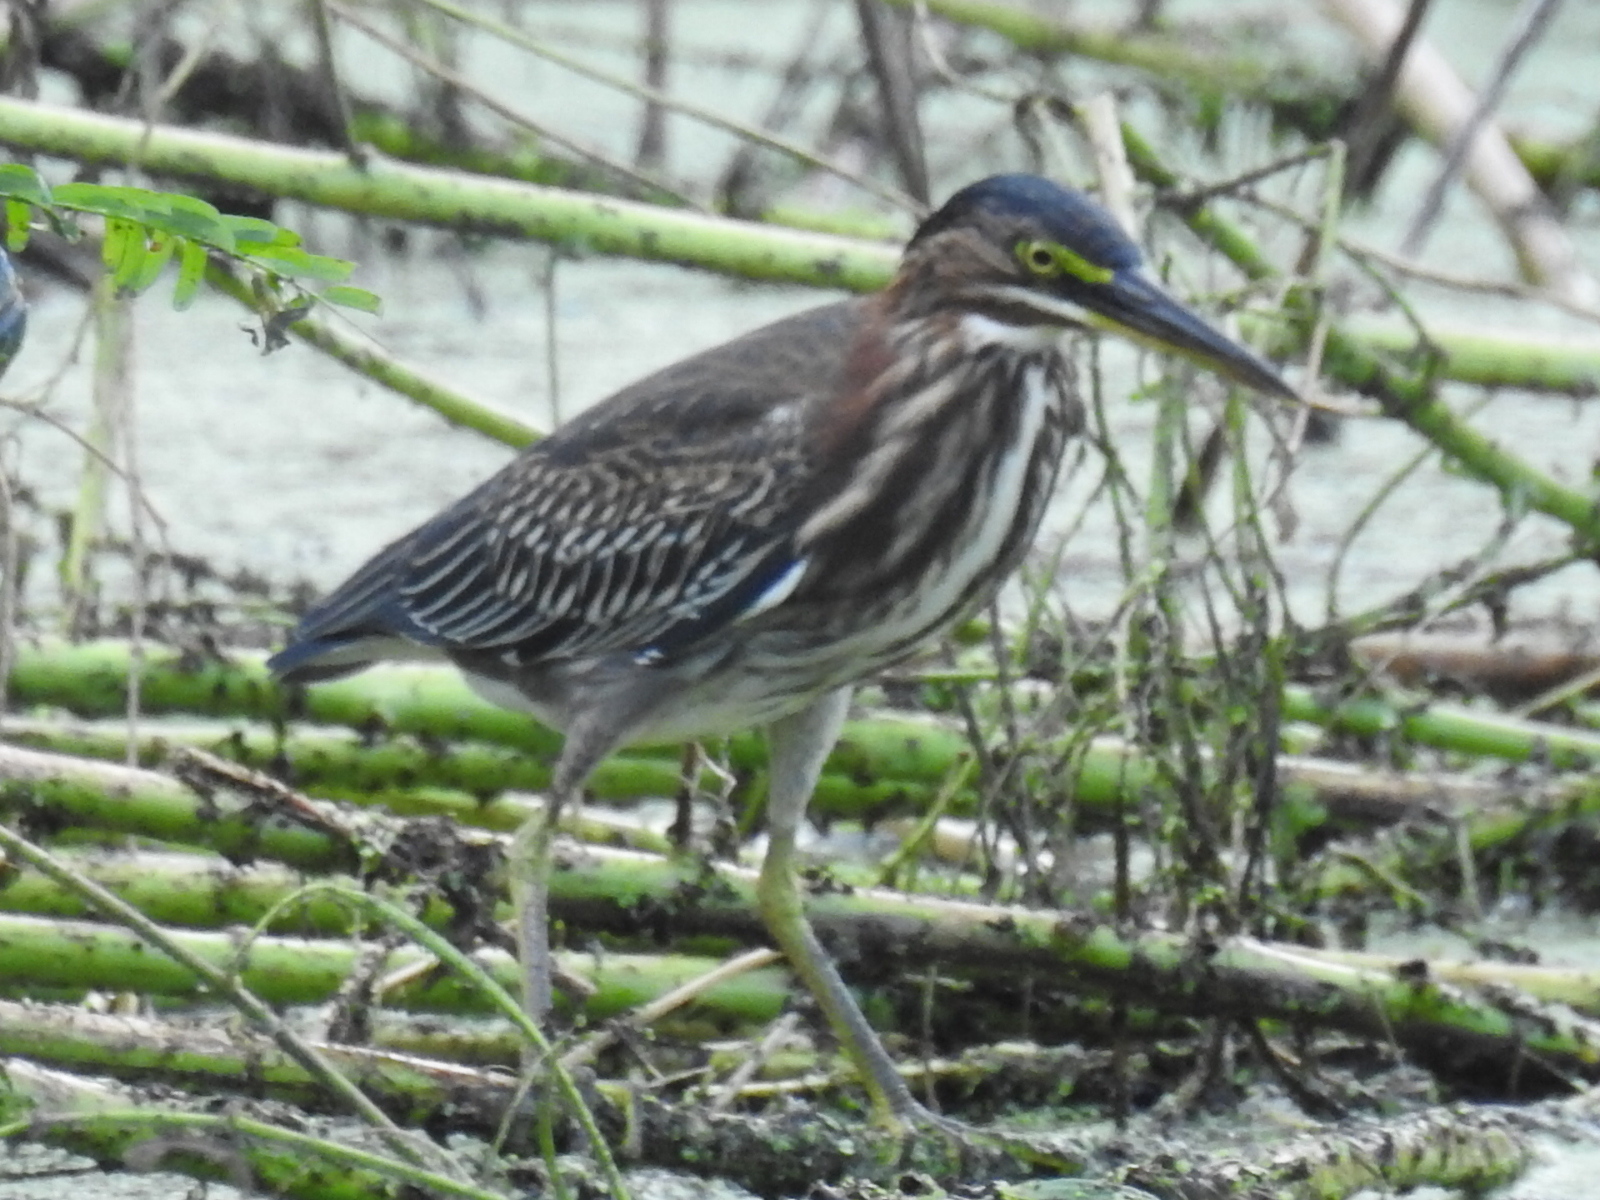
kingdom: Animalia
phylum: Chordata
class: Aves
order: Pelecaniformes
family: Ardeidae
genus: Butorides
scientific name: Butorides virescens
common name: Green heron
